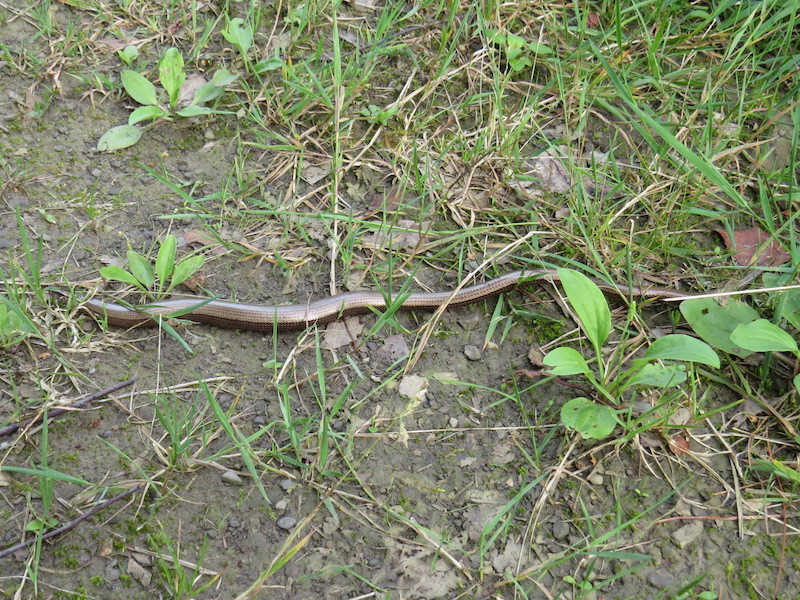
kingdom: Animalia
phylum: Chordata
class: Squamata
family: Anguidae
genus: Anguis
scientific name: Anguis fragilis
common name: Slow worm
